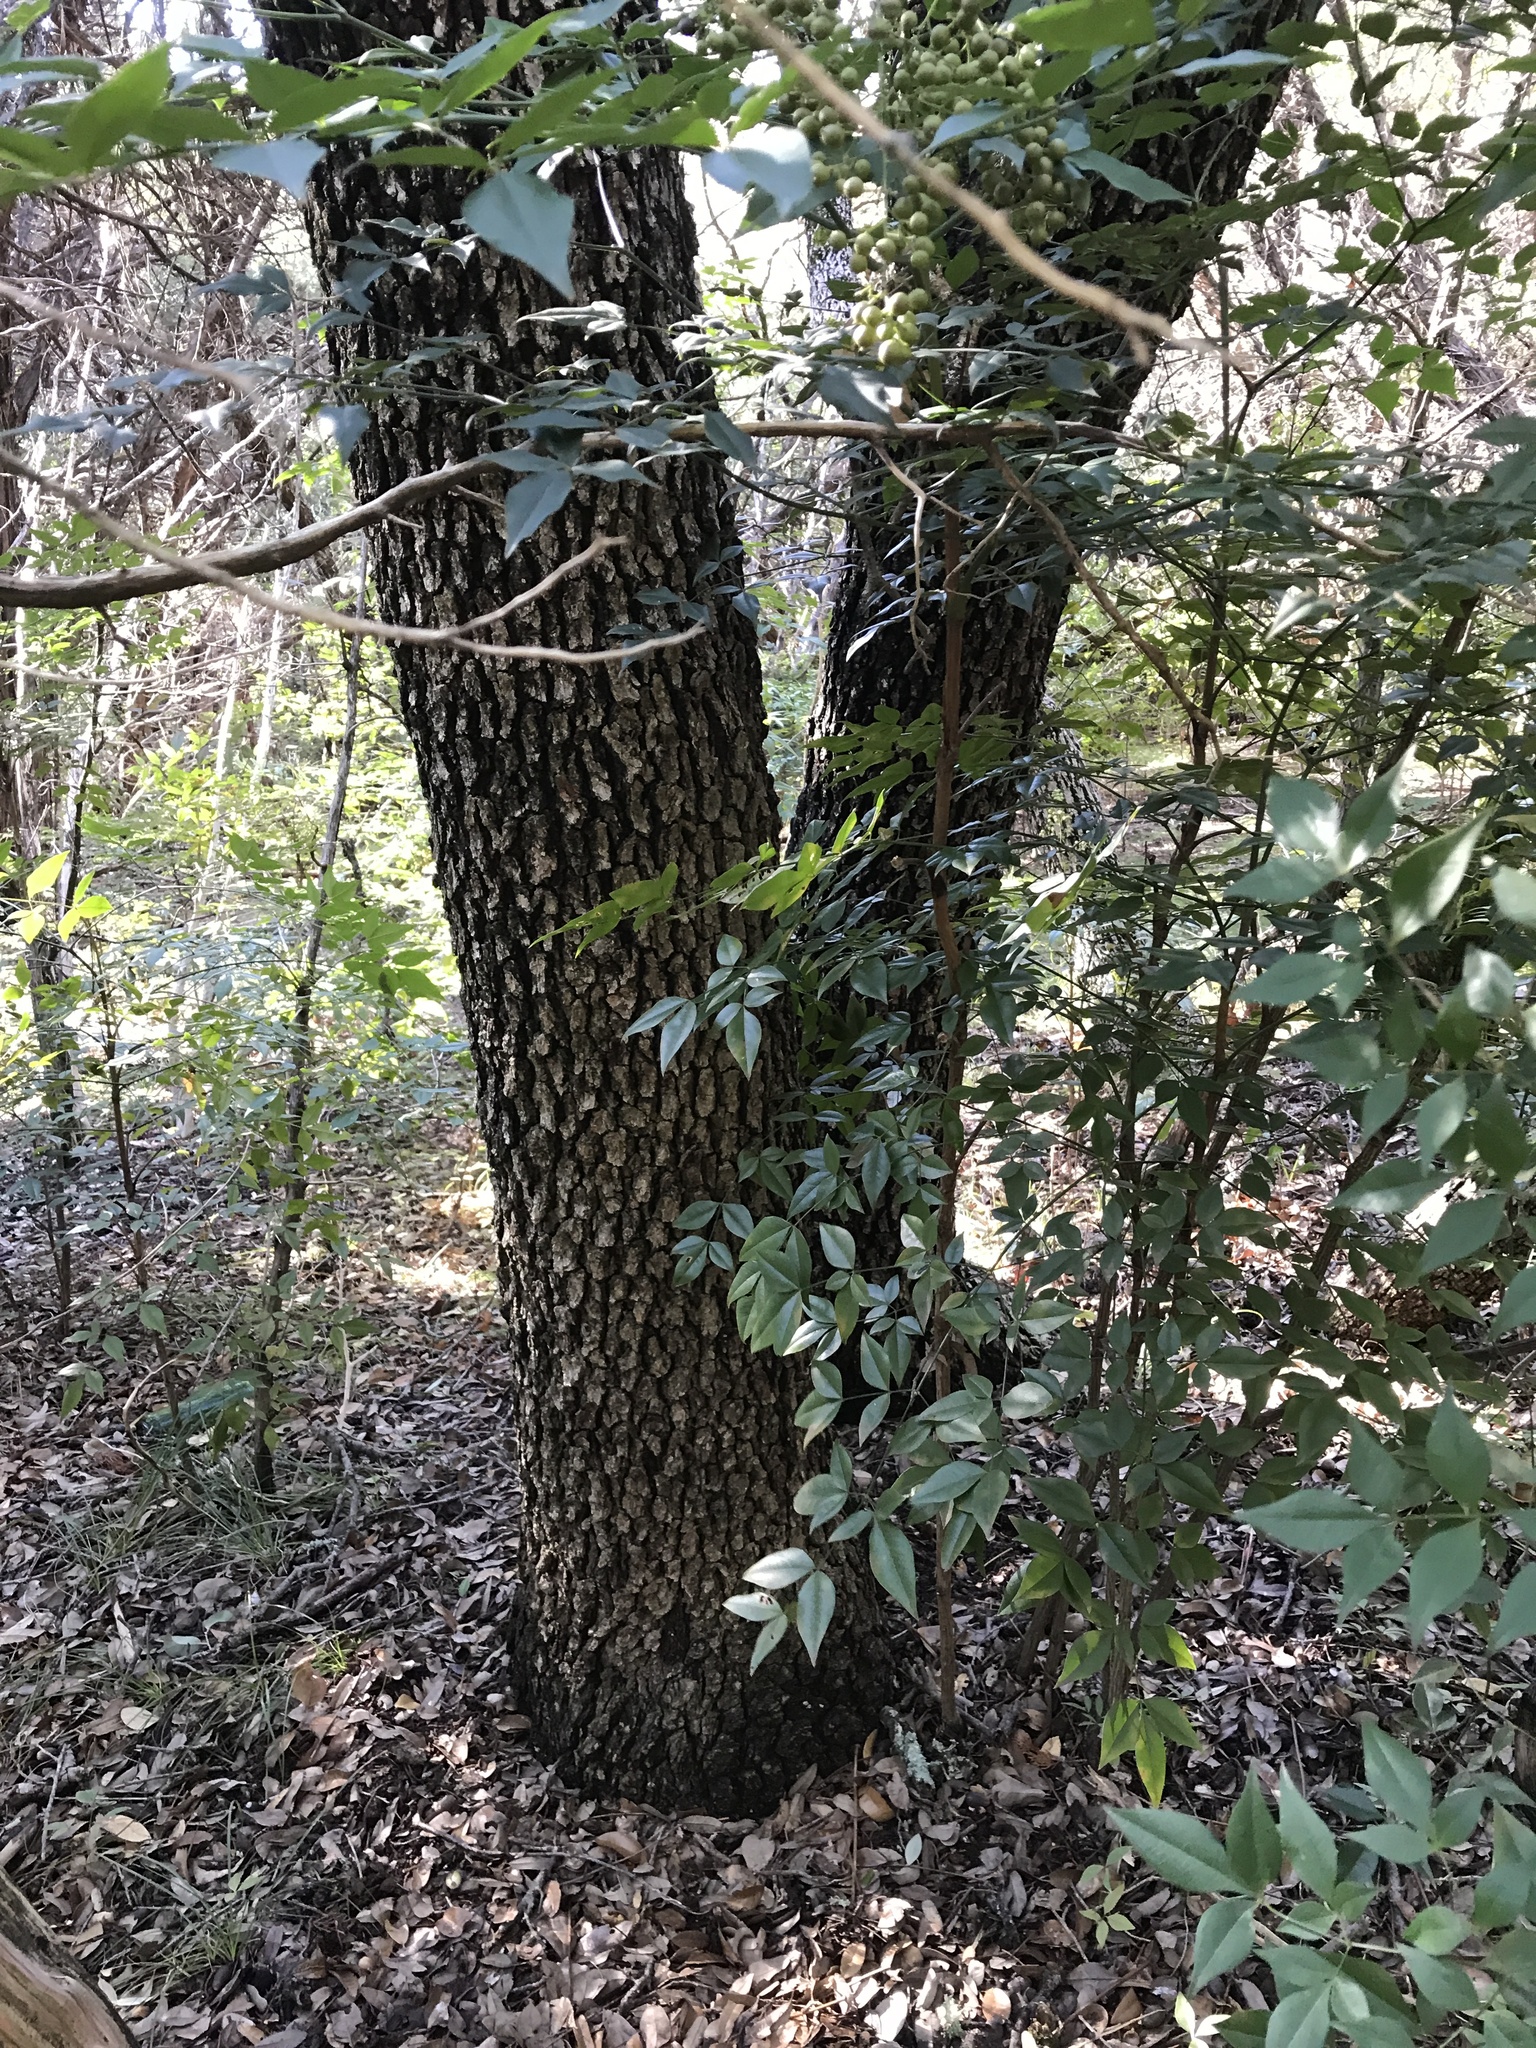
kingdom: Plantae
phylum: Tracheophyta
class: Magnoliopsida
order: Fagales
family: Fagaceae
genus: Quercus
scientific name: Quercus fusiformis
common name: Texas live oak
